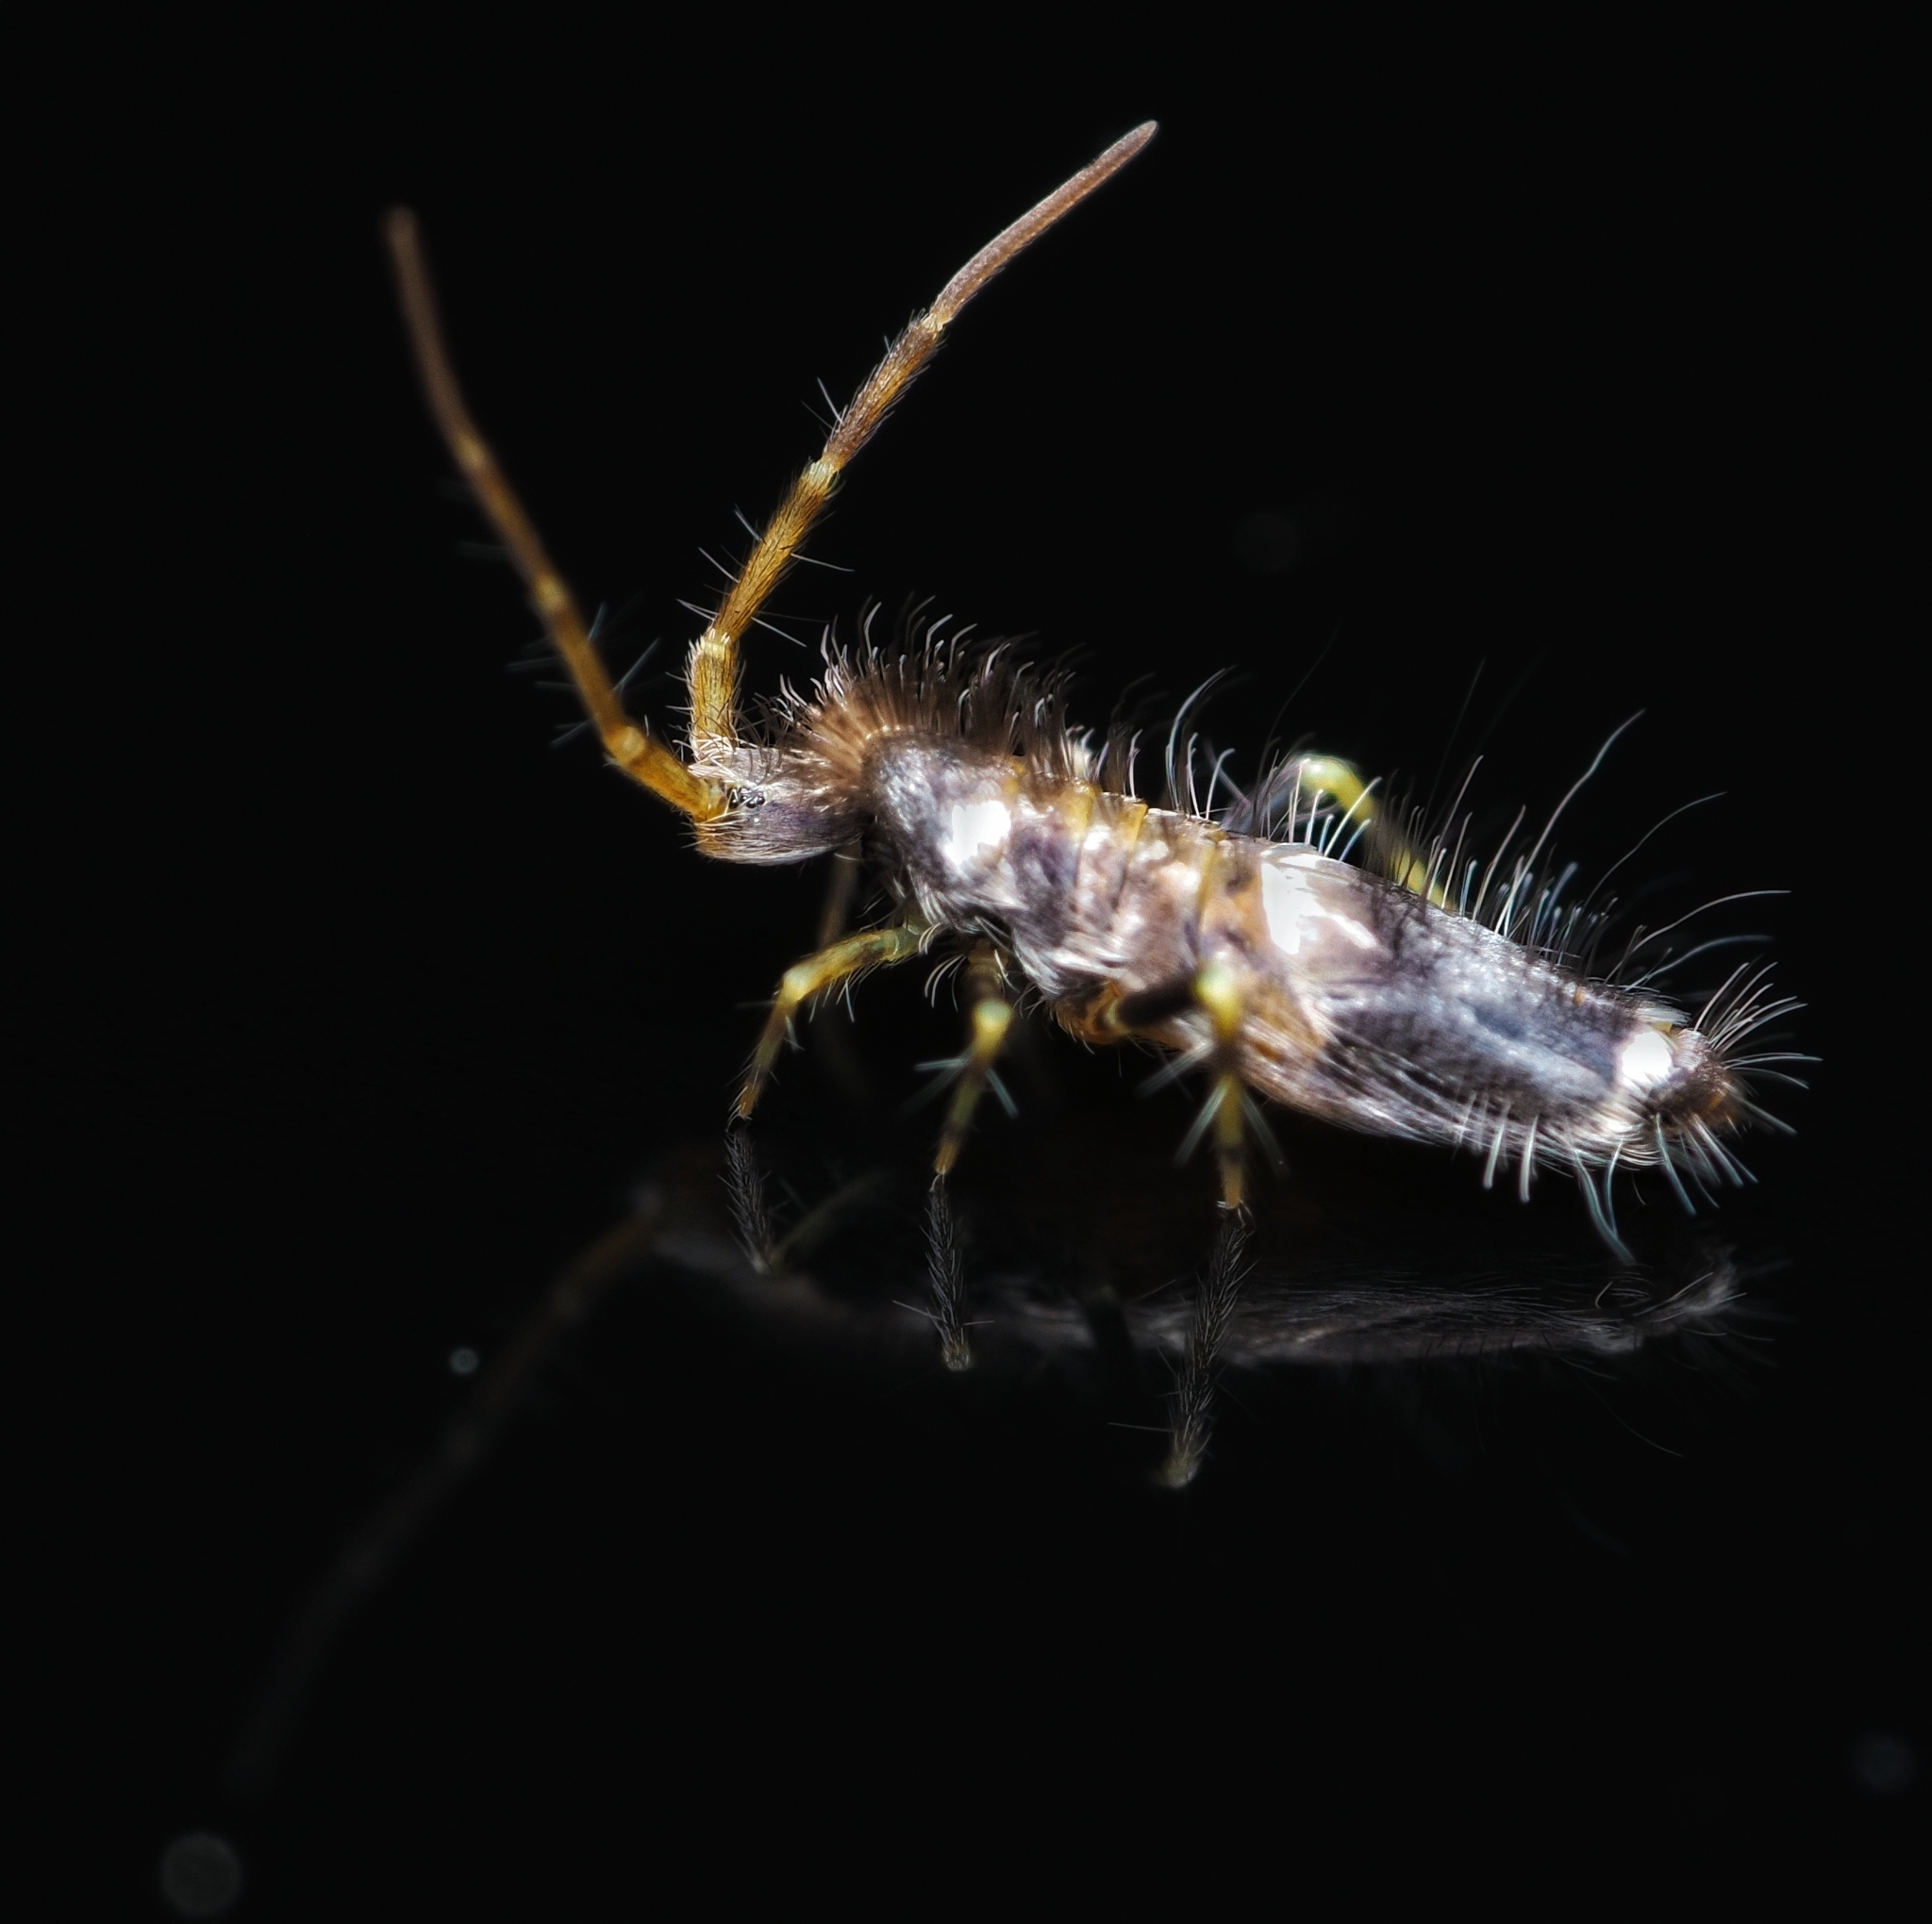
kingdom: Animalia
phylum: Arthropoda
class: Collembola
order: Entomobryomorpha
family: Entomobryidae
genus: Entomobrya
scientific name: Entomobrya dorsalis
